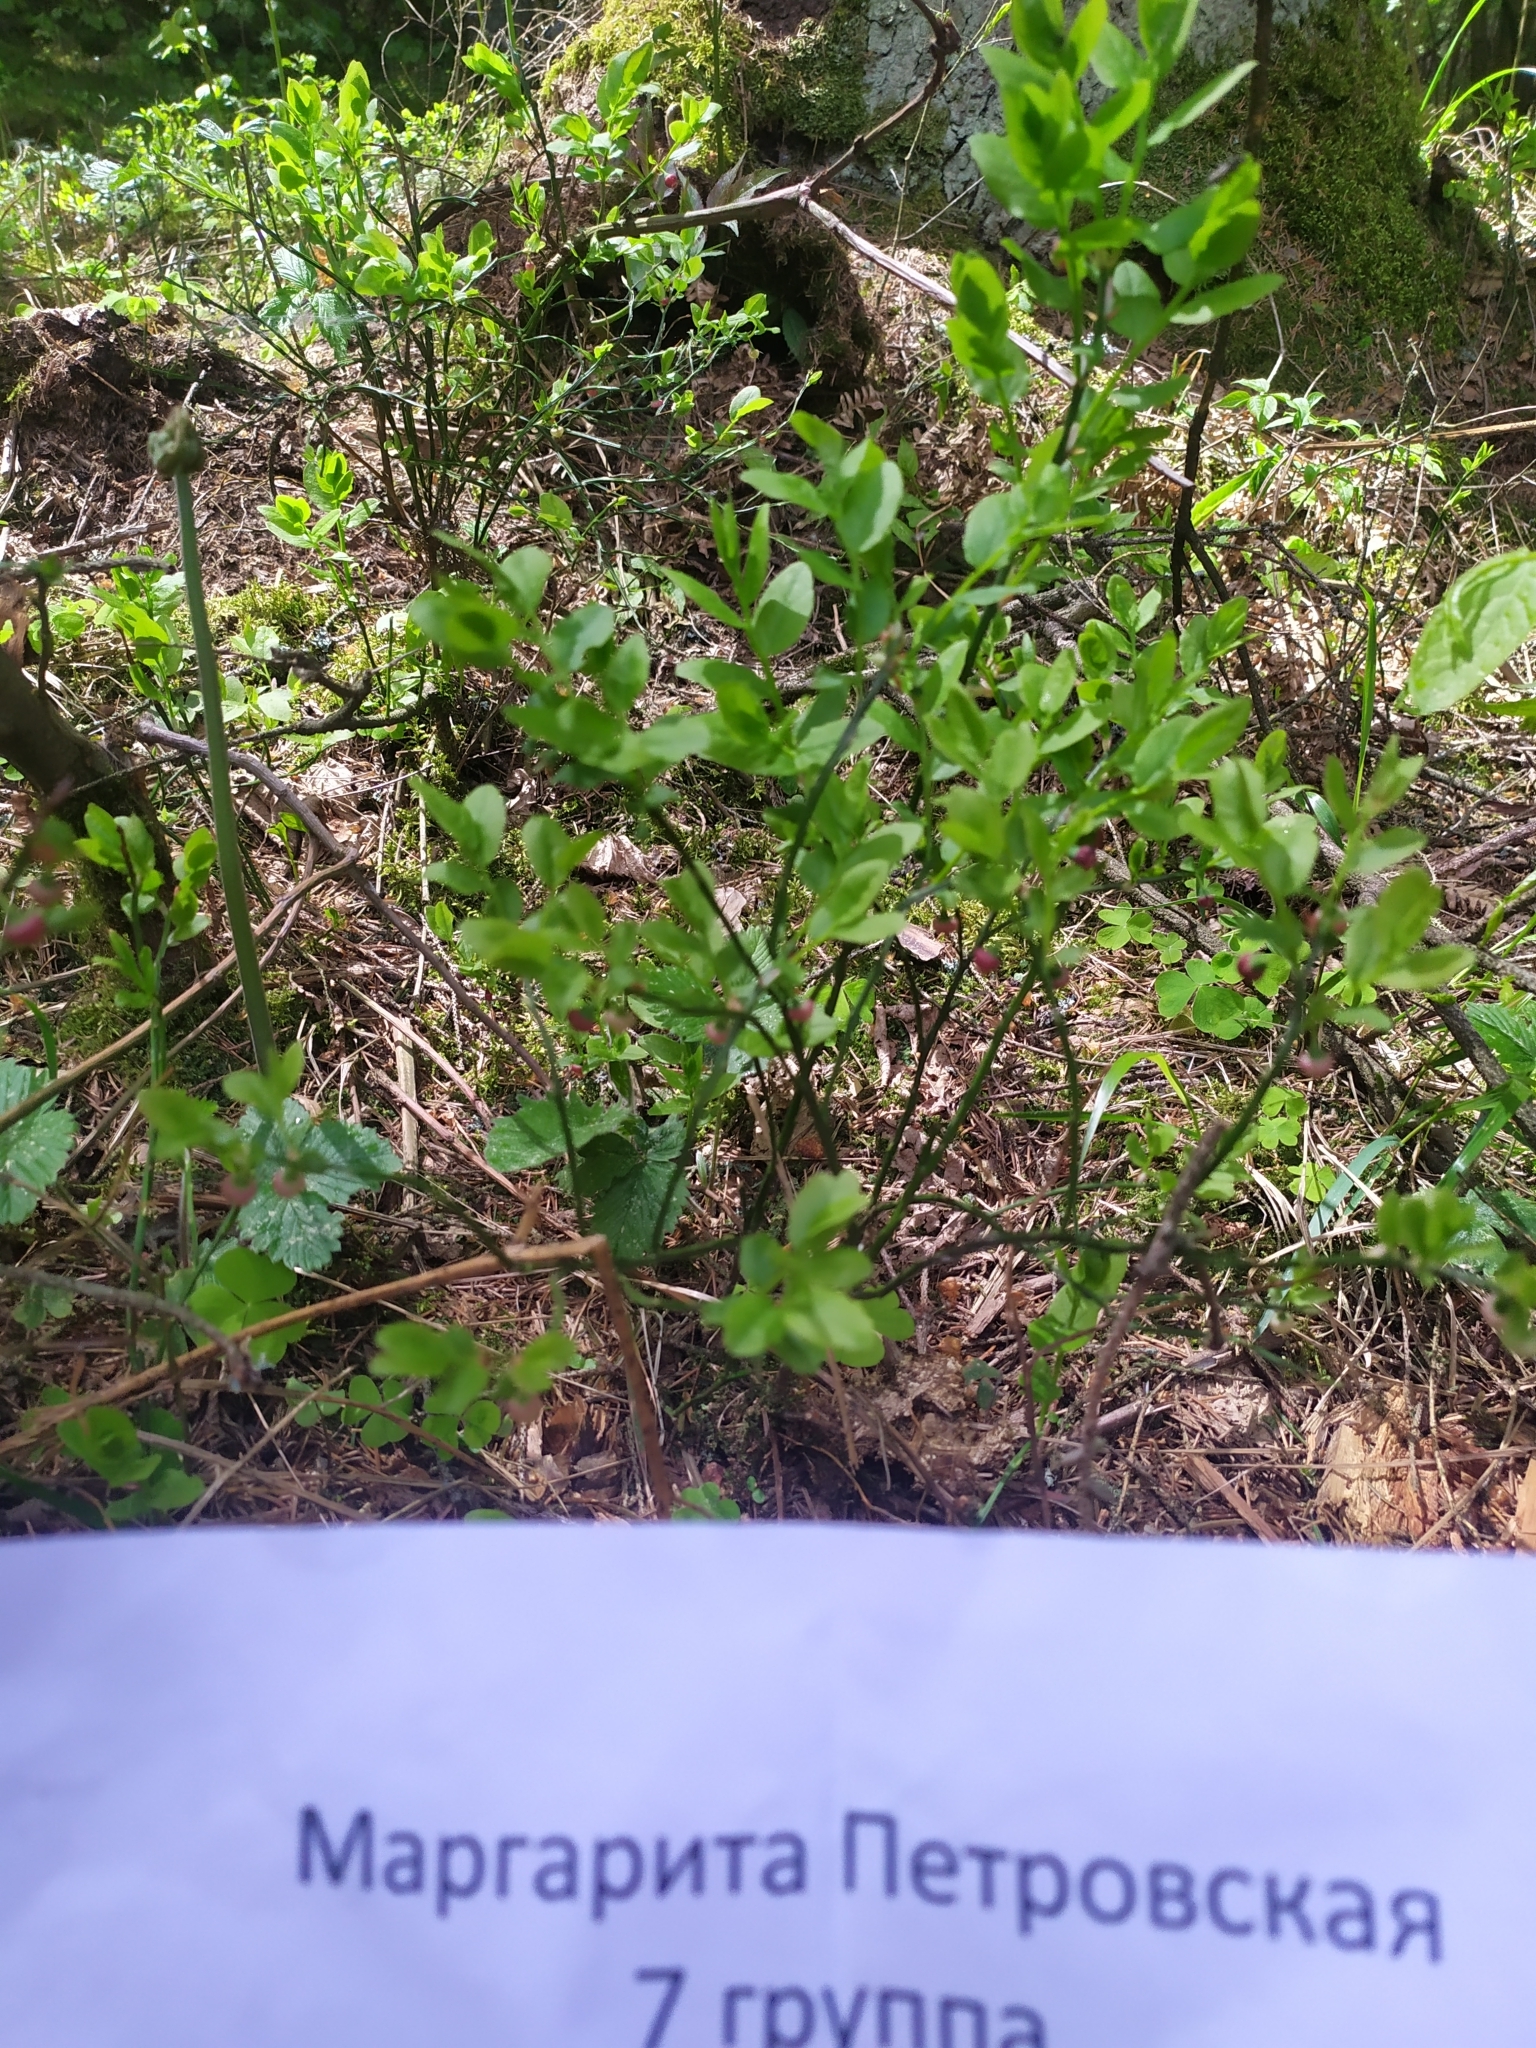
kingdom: Plantae
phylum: Tracheophyta
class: Magnoliopsida
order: Ericales
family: Ericaceae
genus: Vaccinium
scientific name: Vaccinium myrtillus
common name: Bilberry
